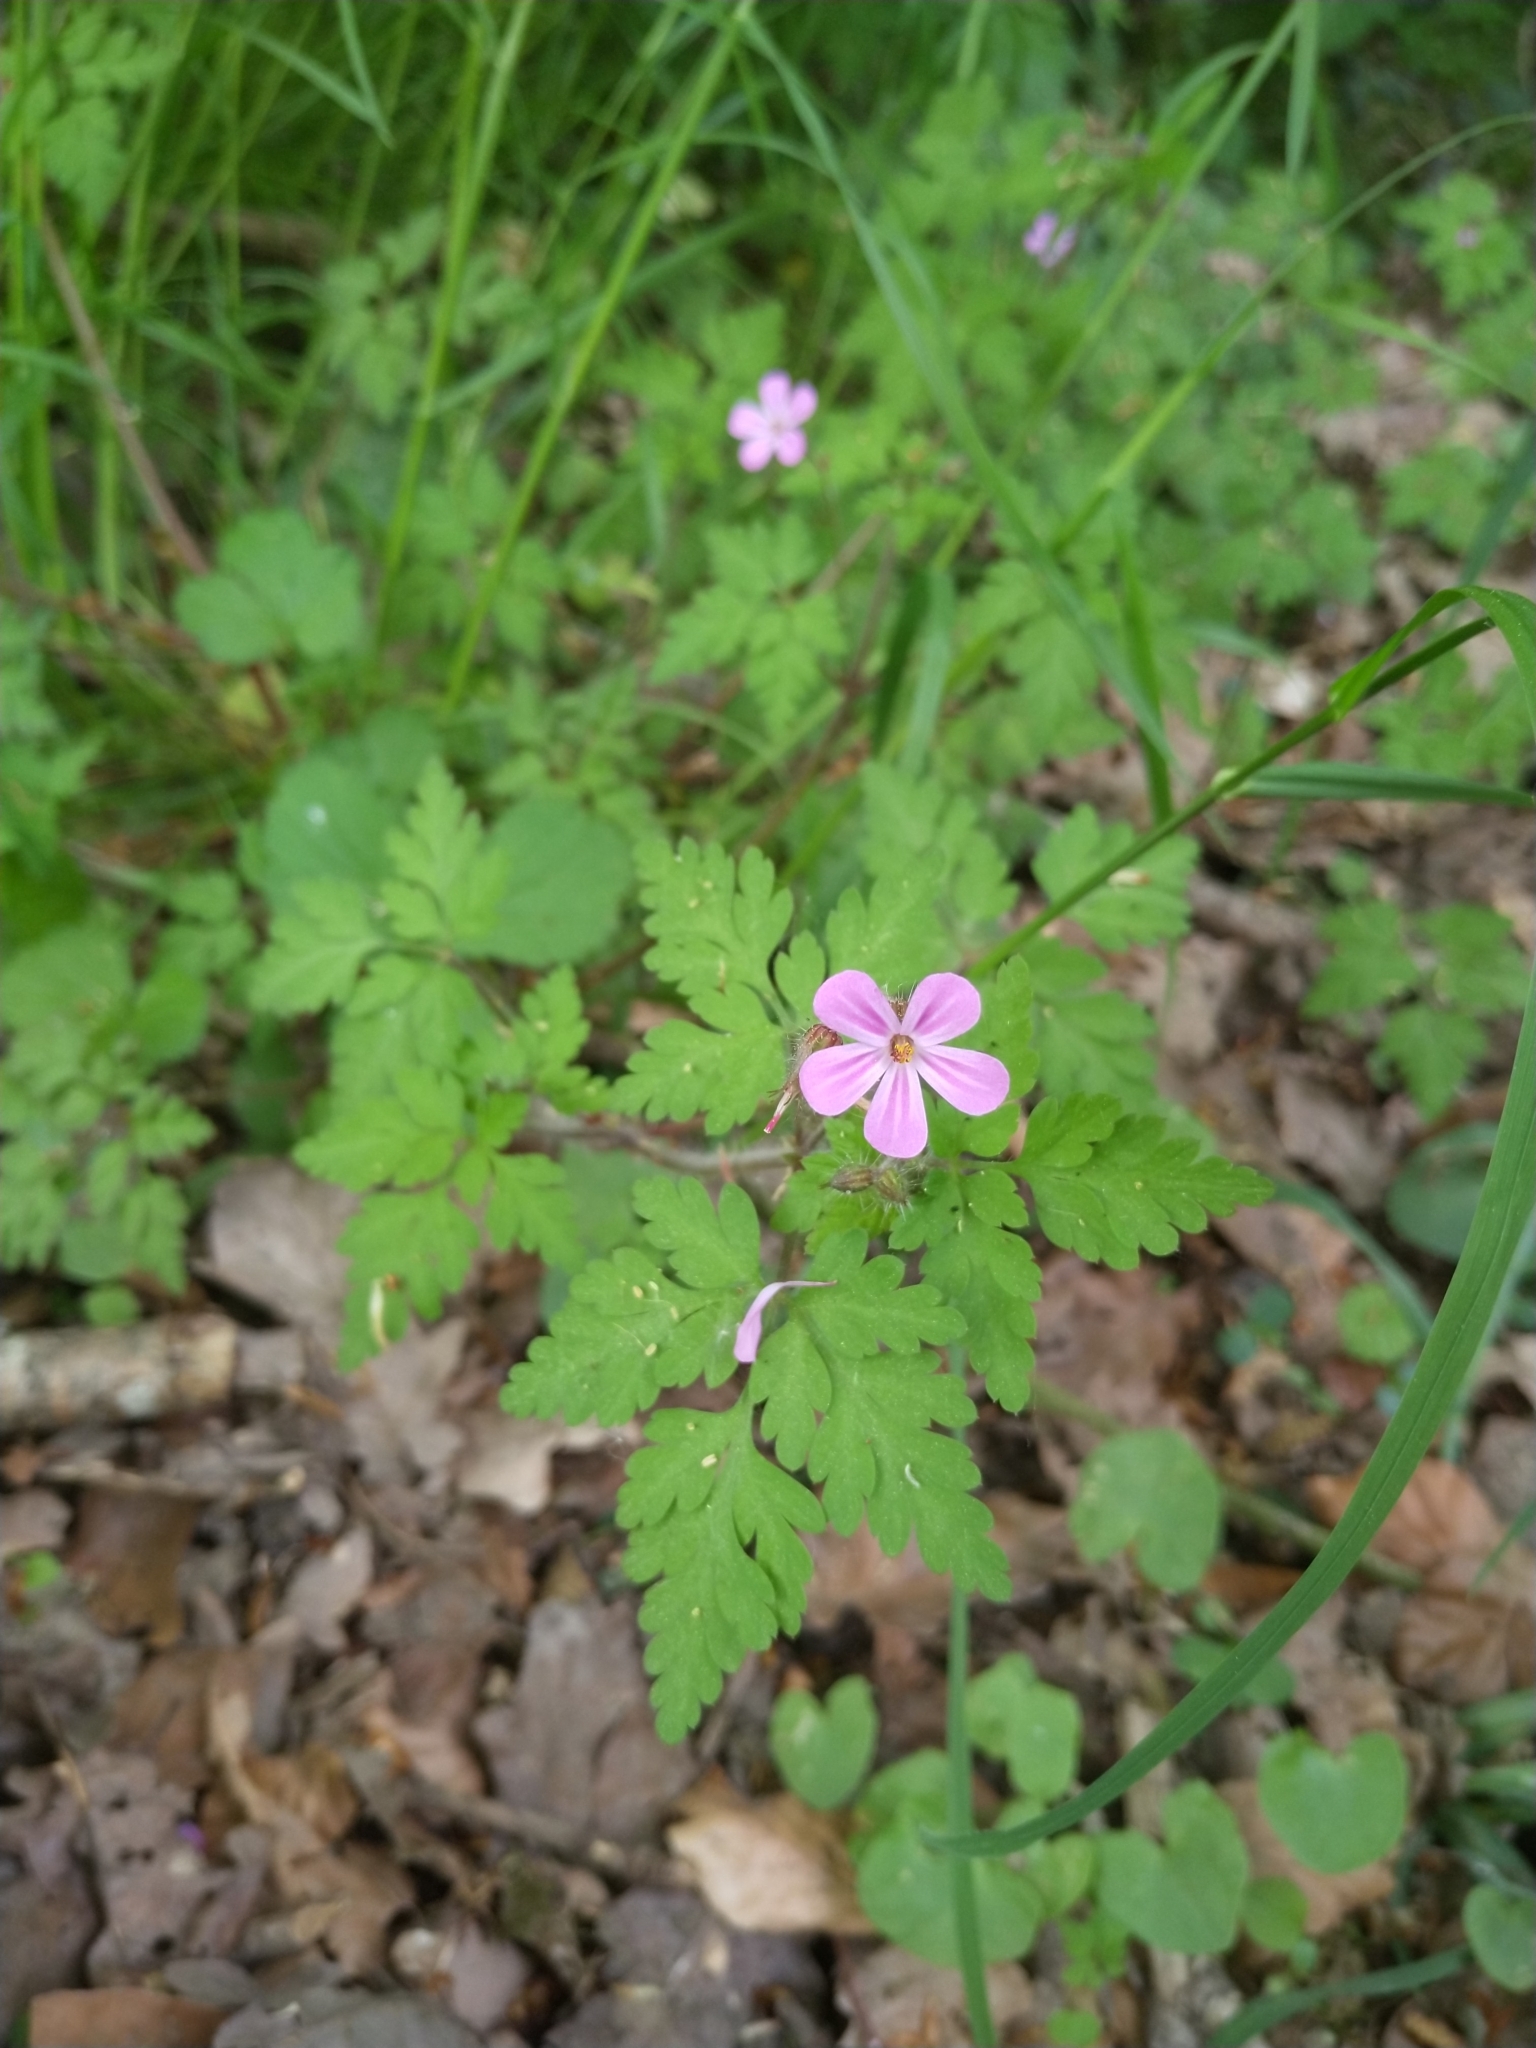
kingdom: Plantae
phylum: Tracheophyta
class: Magnoliopsida
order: Geraniales
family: Geraniaceae
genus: Geranium
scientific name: Geranium robertianum
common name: Herb-robert
